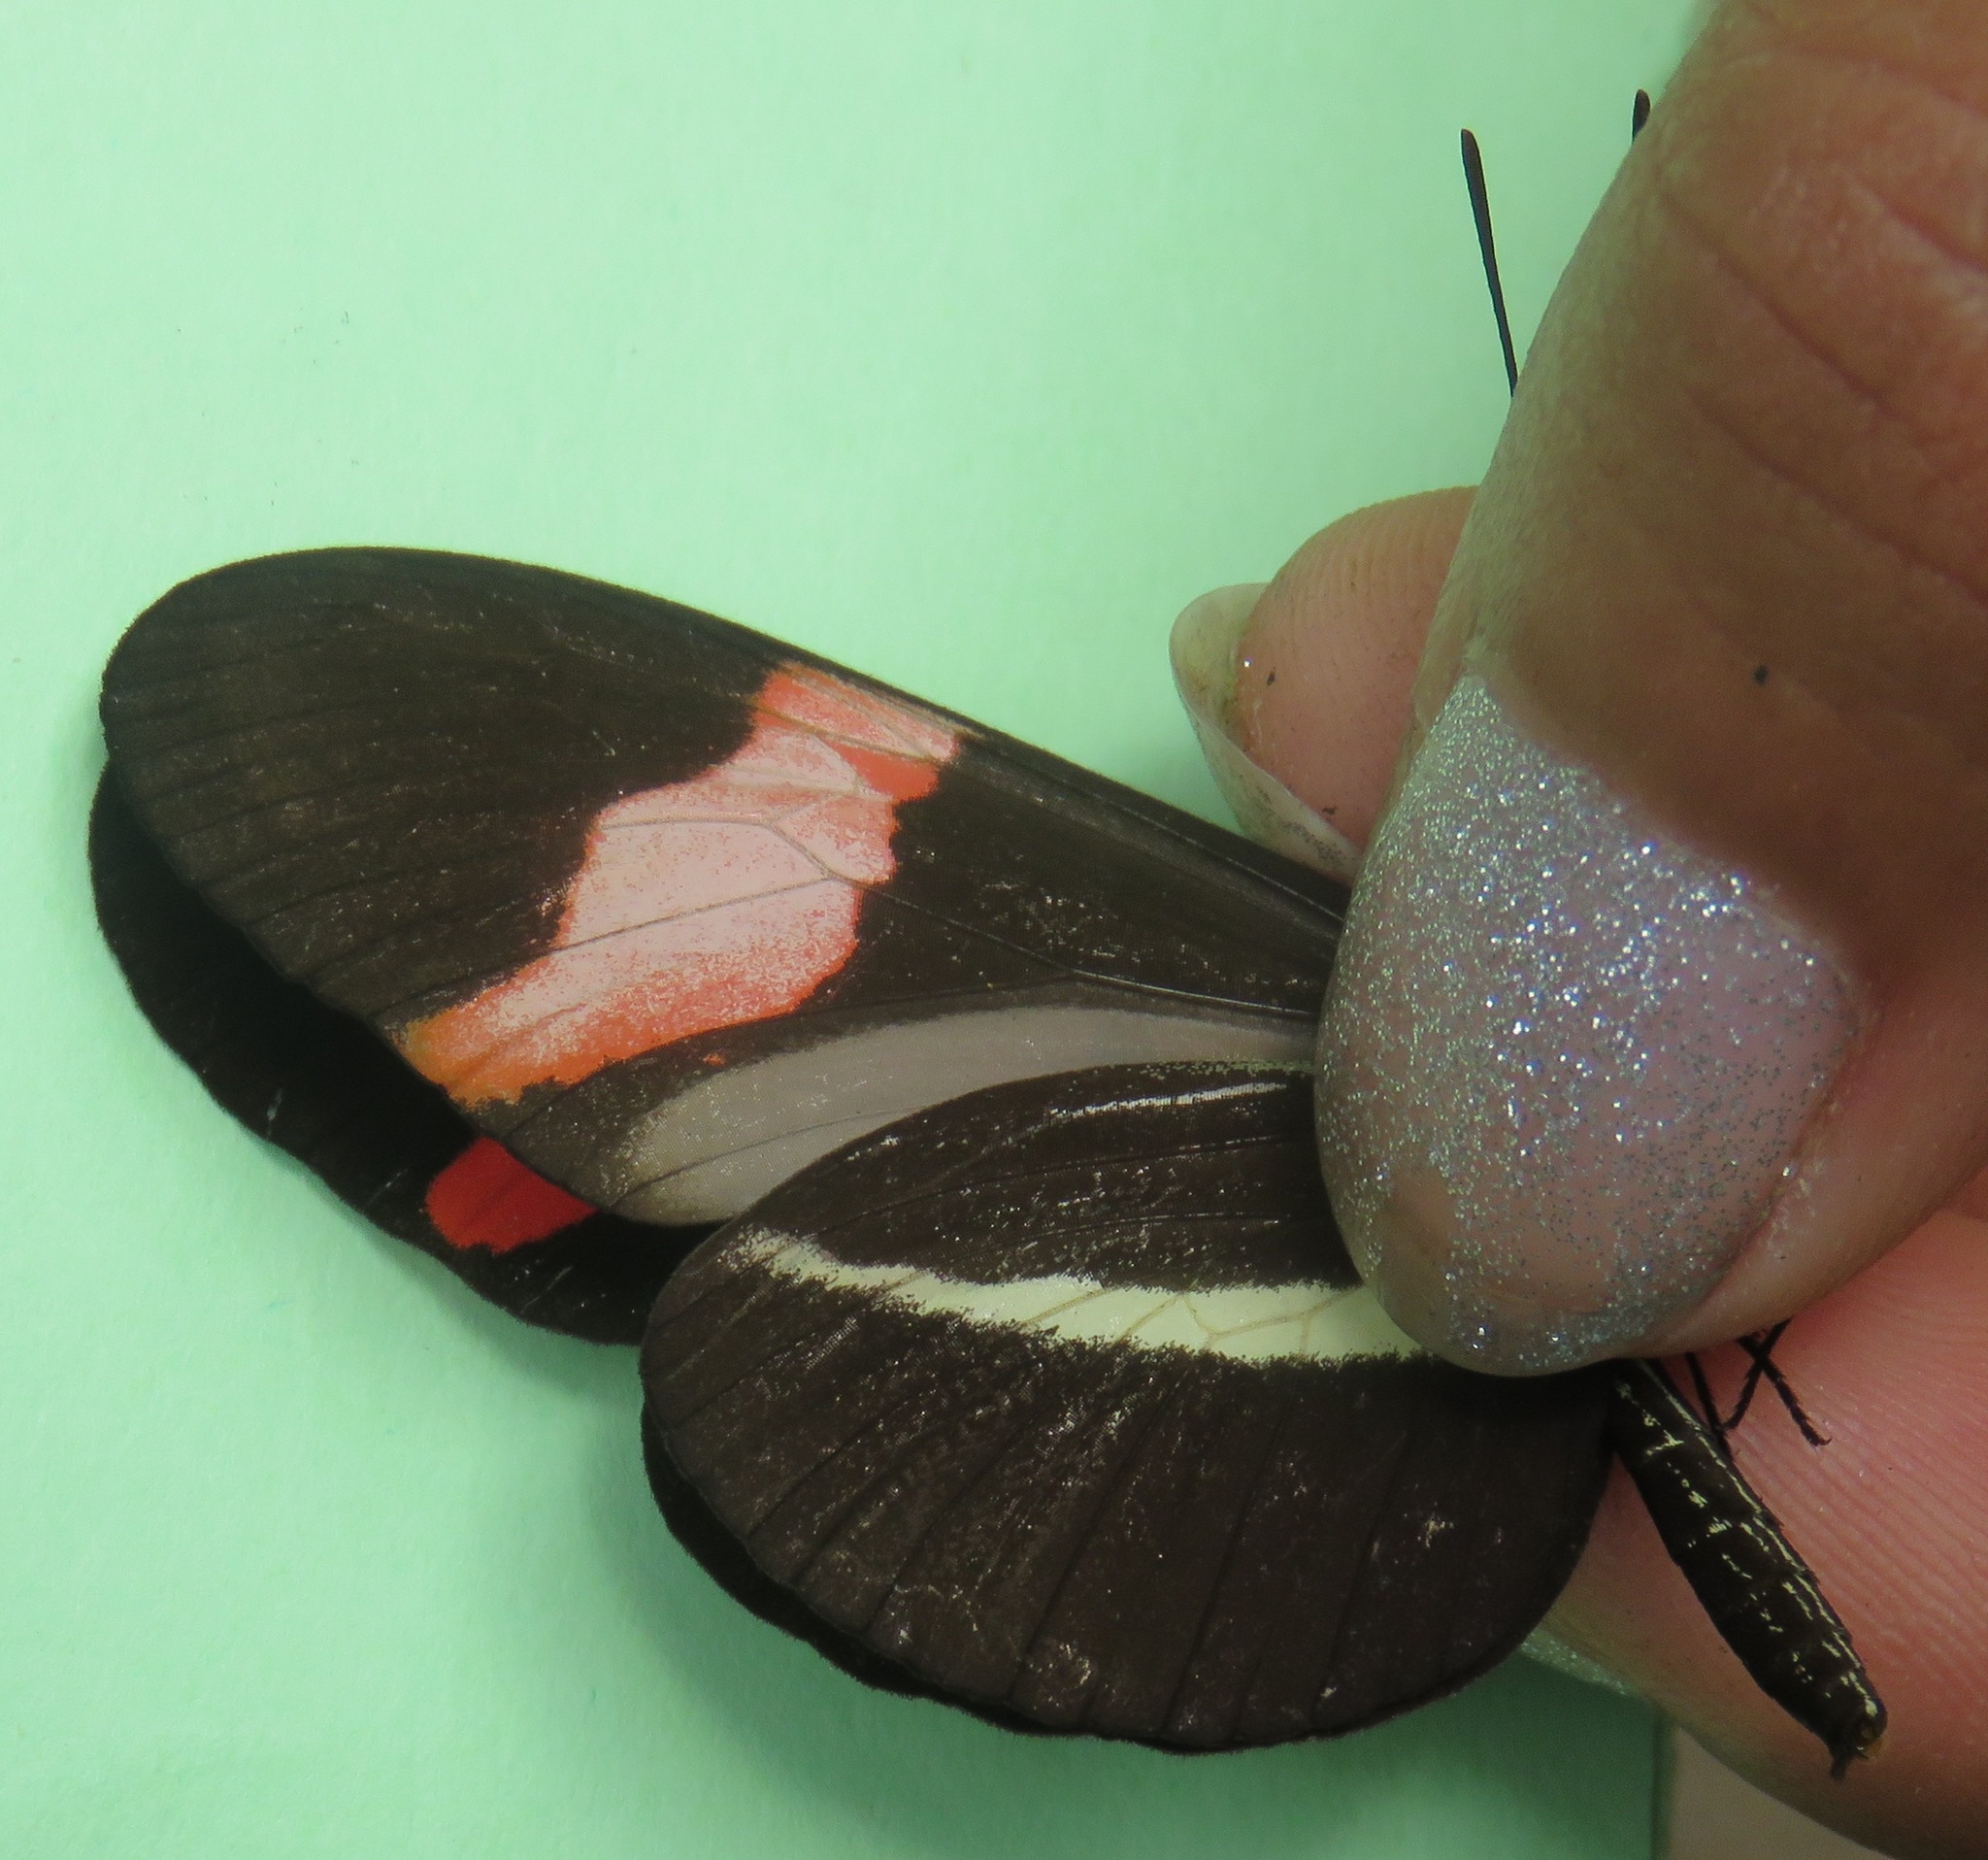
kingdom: Animalia
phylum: Arthropoda
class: Insecta
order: Lepidoptera
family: Nymphalidae
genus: Tirumala
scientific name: Tirumala petiverana
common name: Blue monarch
